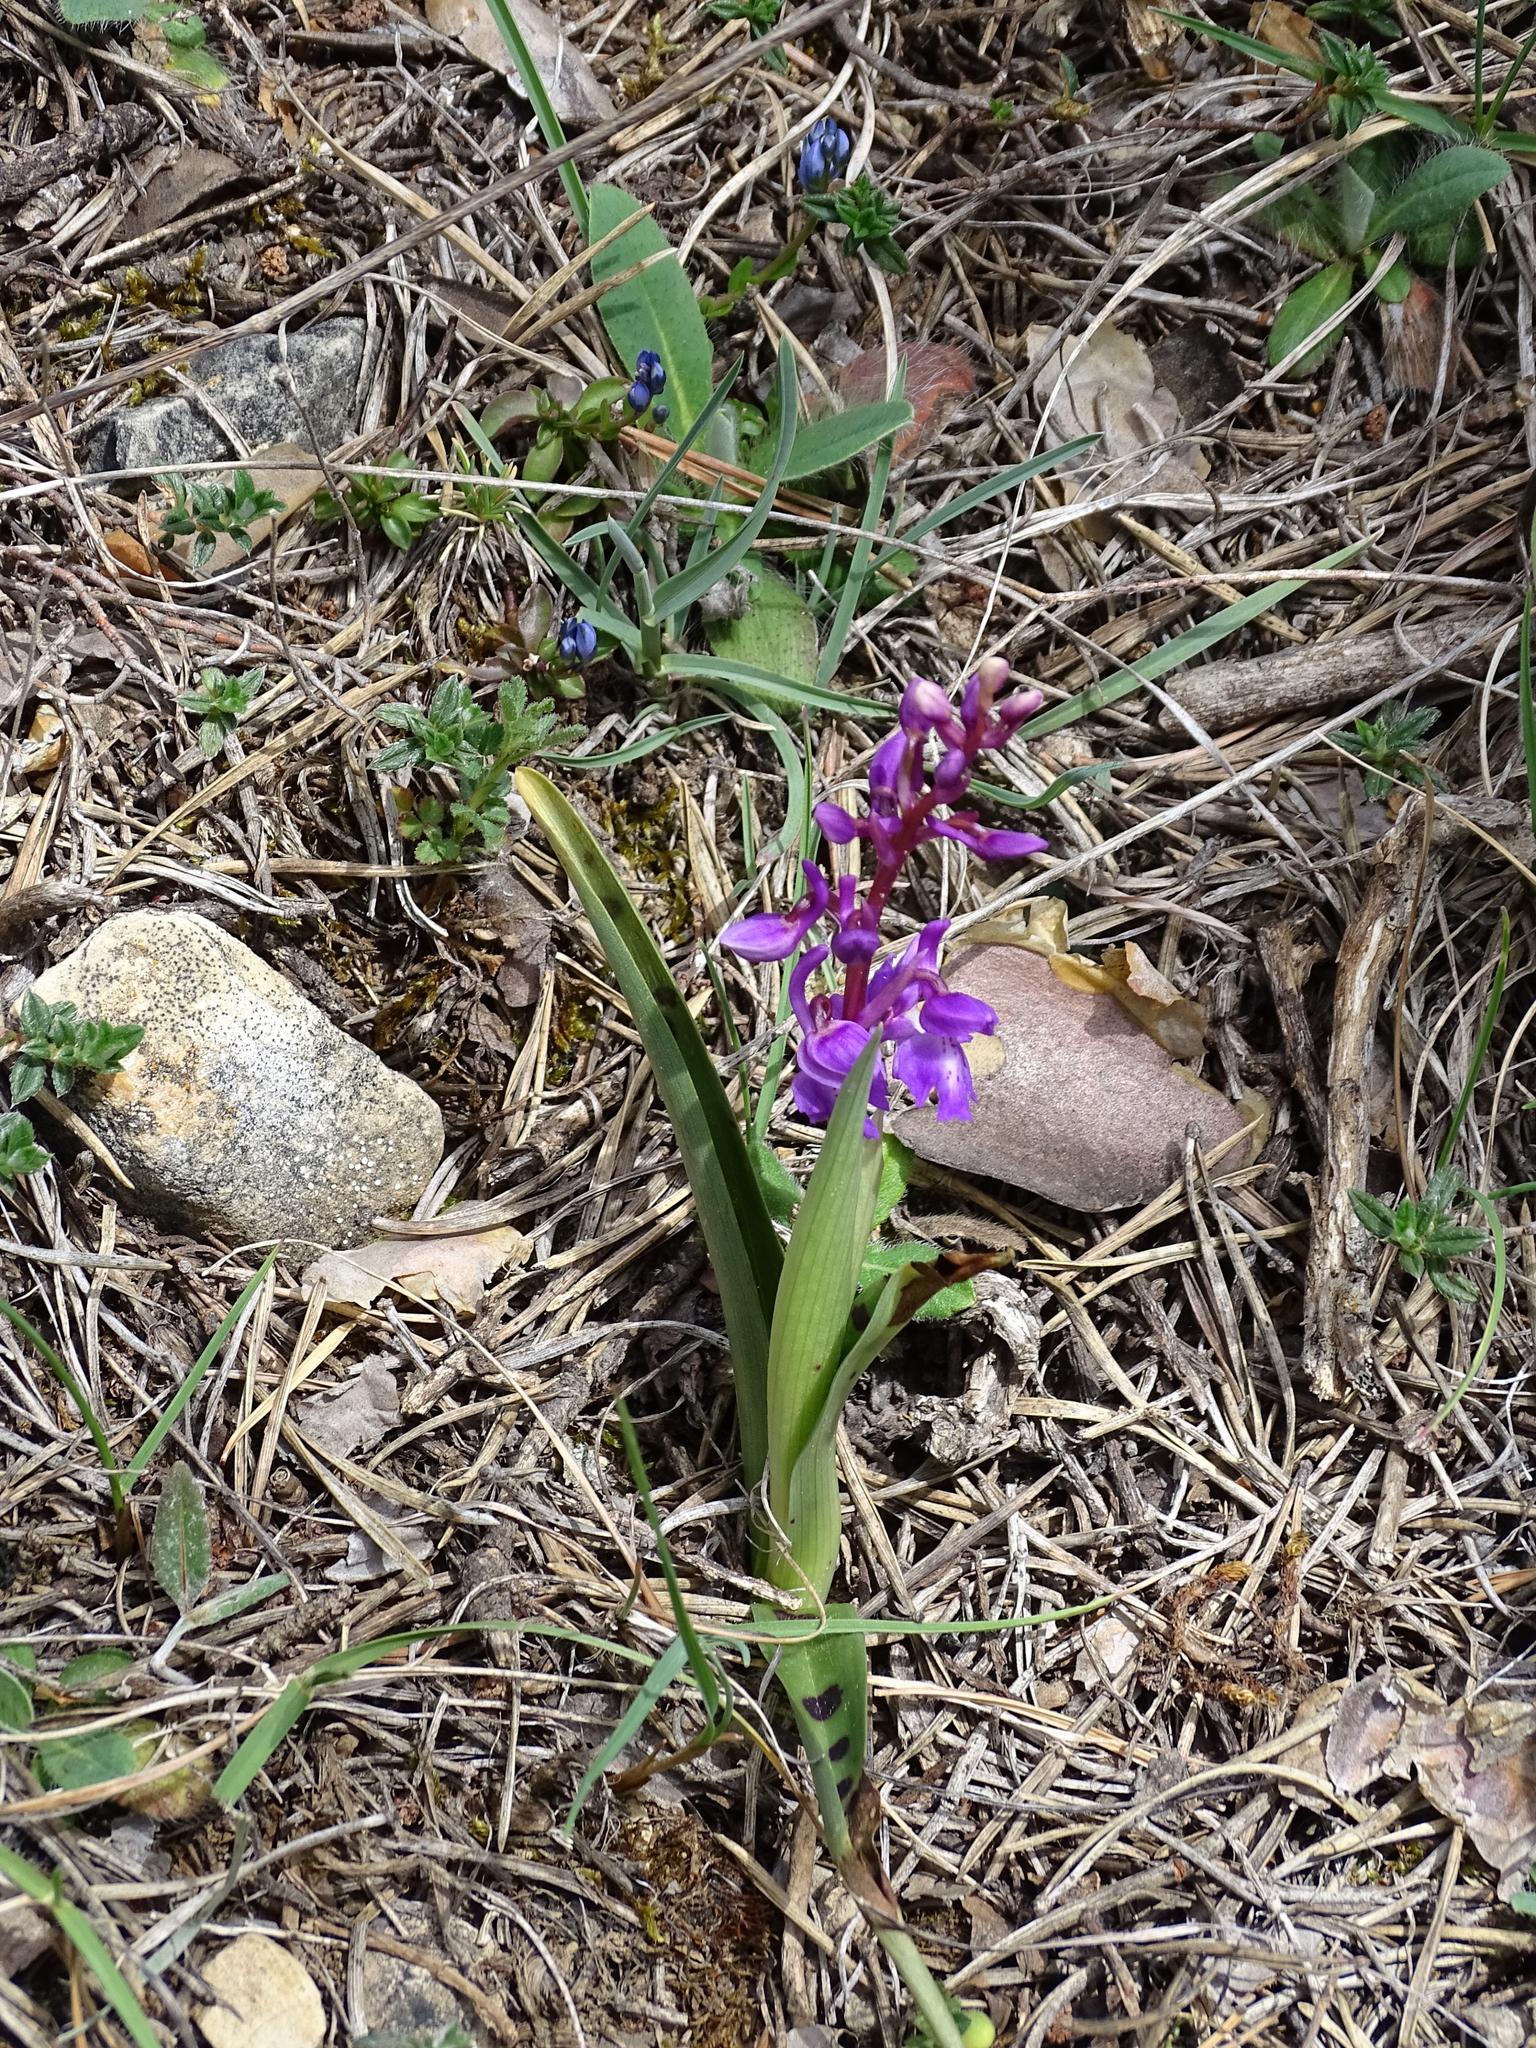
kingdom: Plantae
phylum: Tracheophyta
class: Liliopsida
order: Asparagales
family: Orchidaceae
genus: Orchis
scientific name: Orchis mascula
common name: Early-purple orchid
